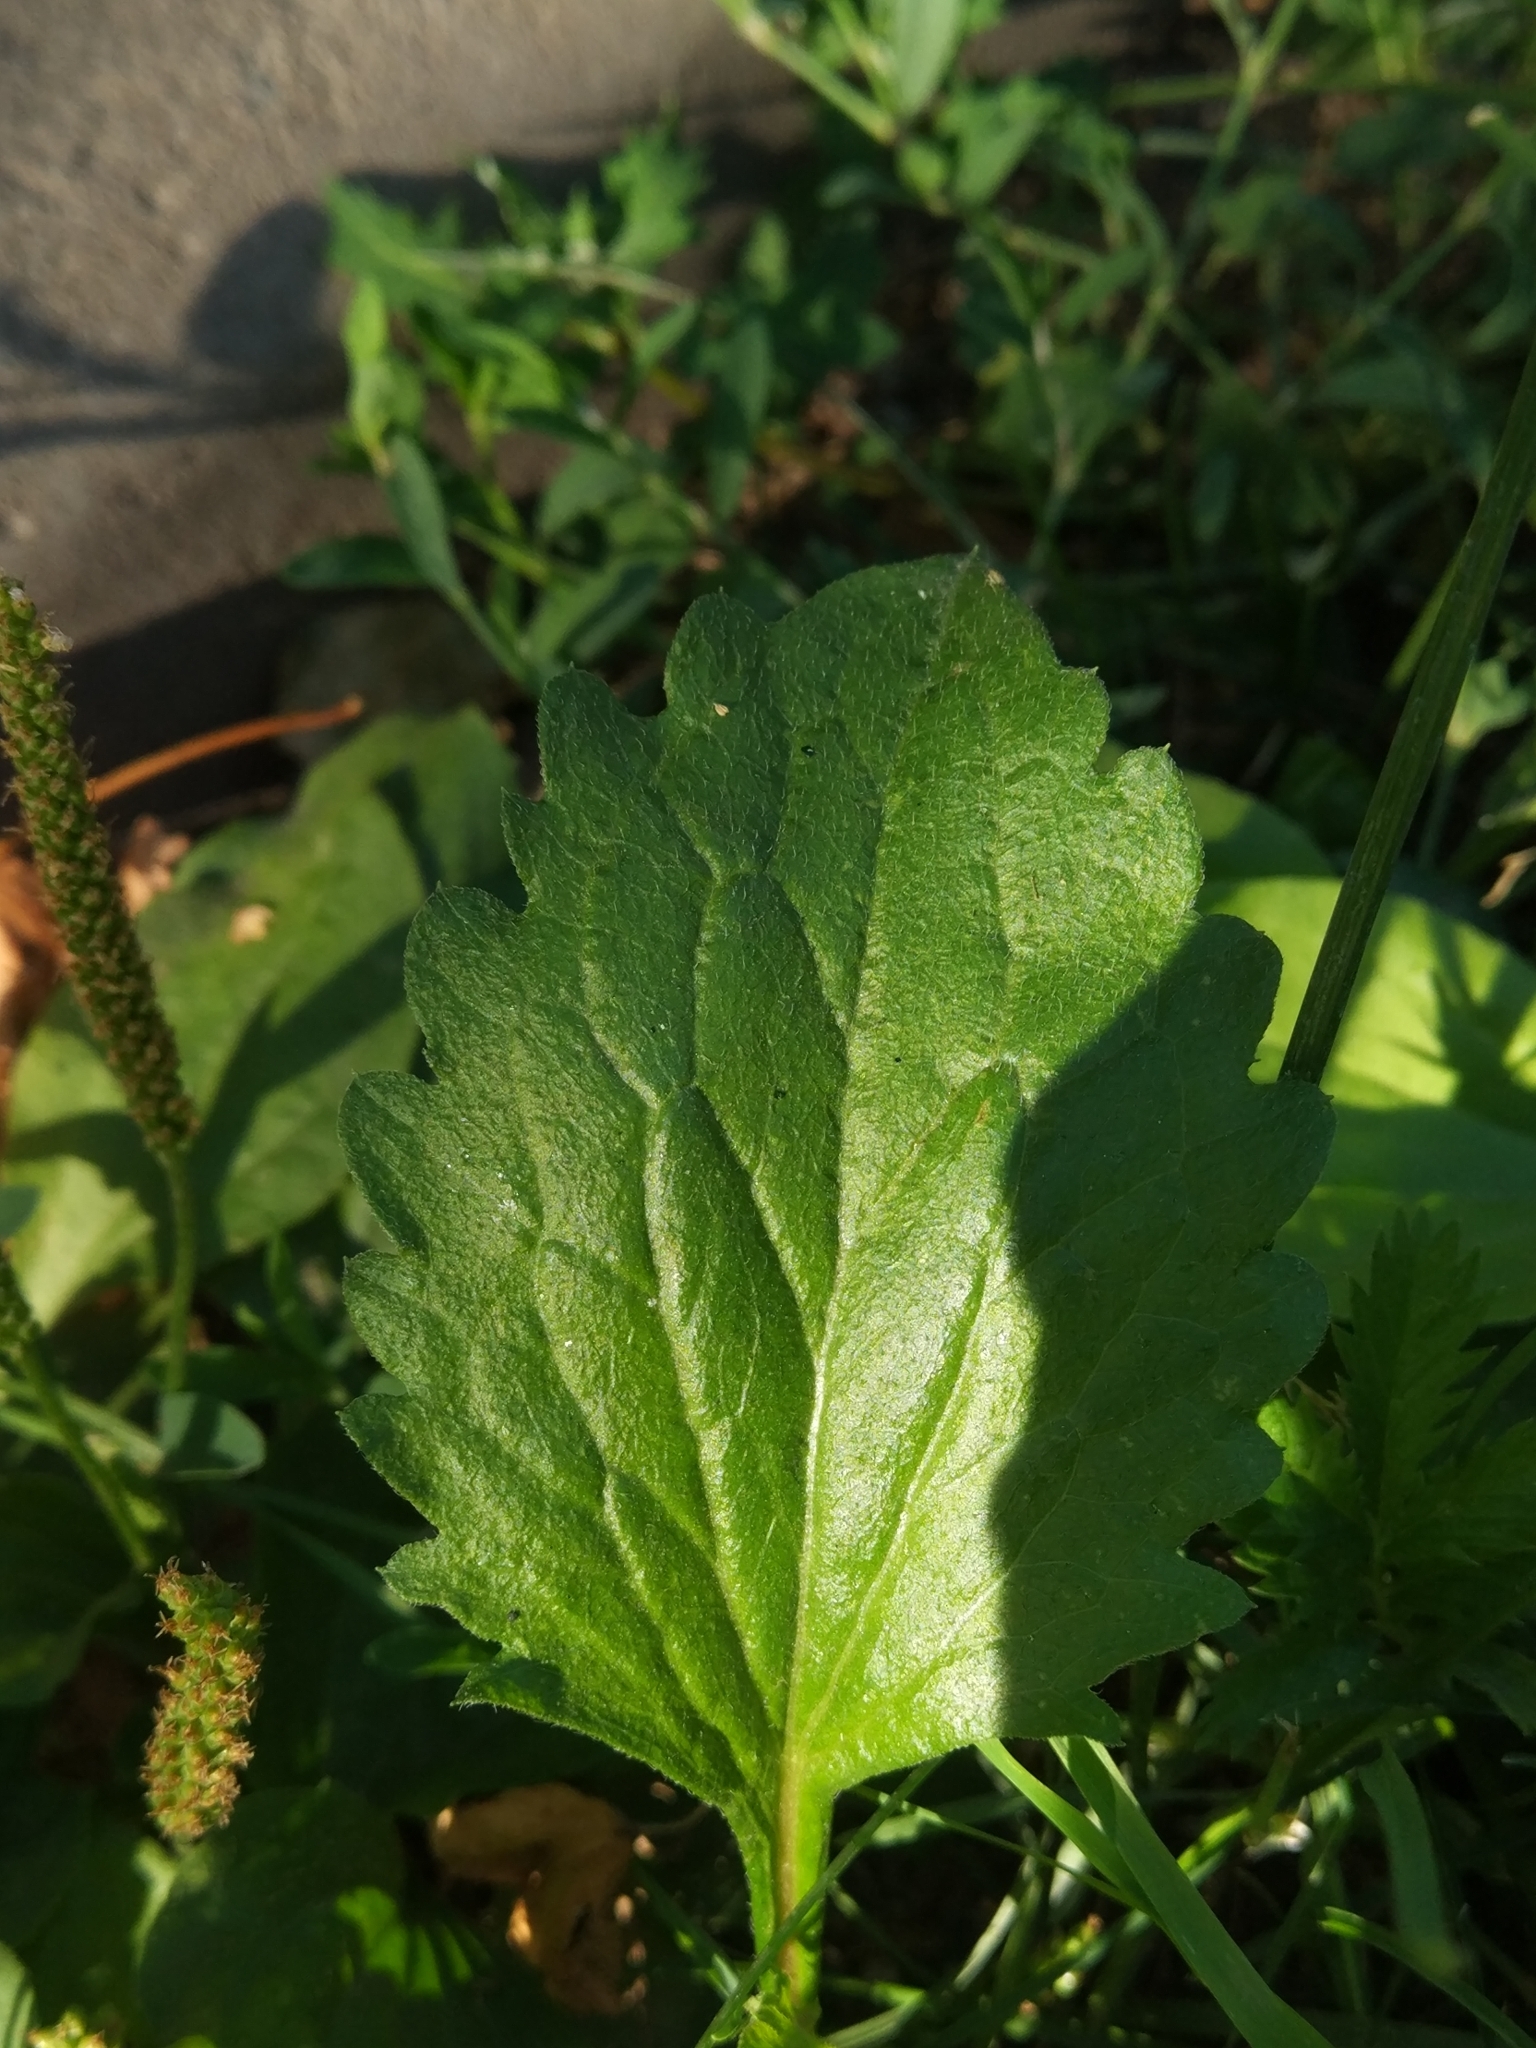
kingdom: Plantae
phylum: Tracheophyta
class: Magnoliopsida
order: Asterales
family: Asteraceae
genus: Erigeron
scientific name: Erigeron annuus
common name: Tall fleabane
